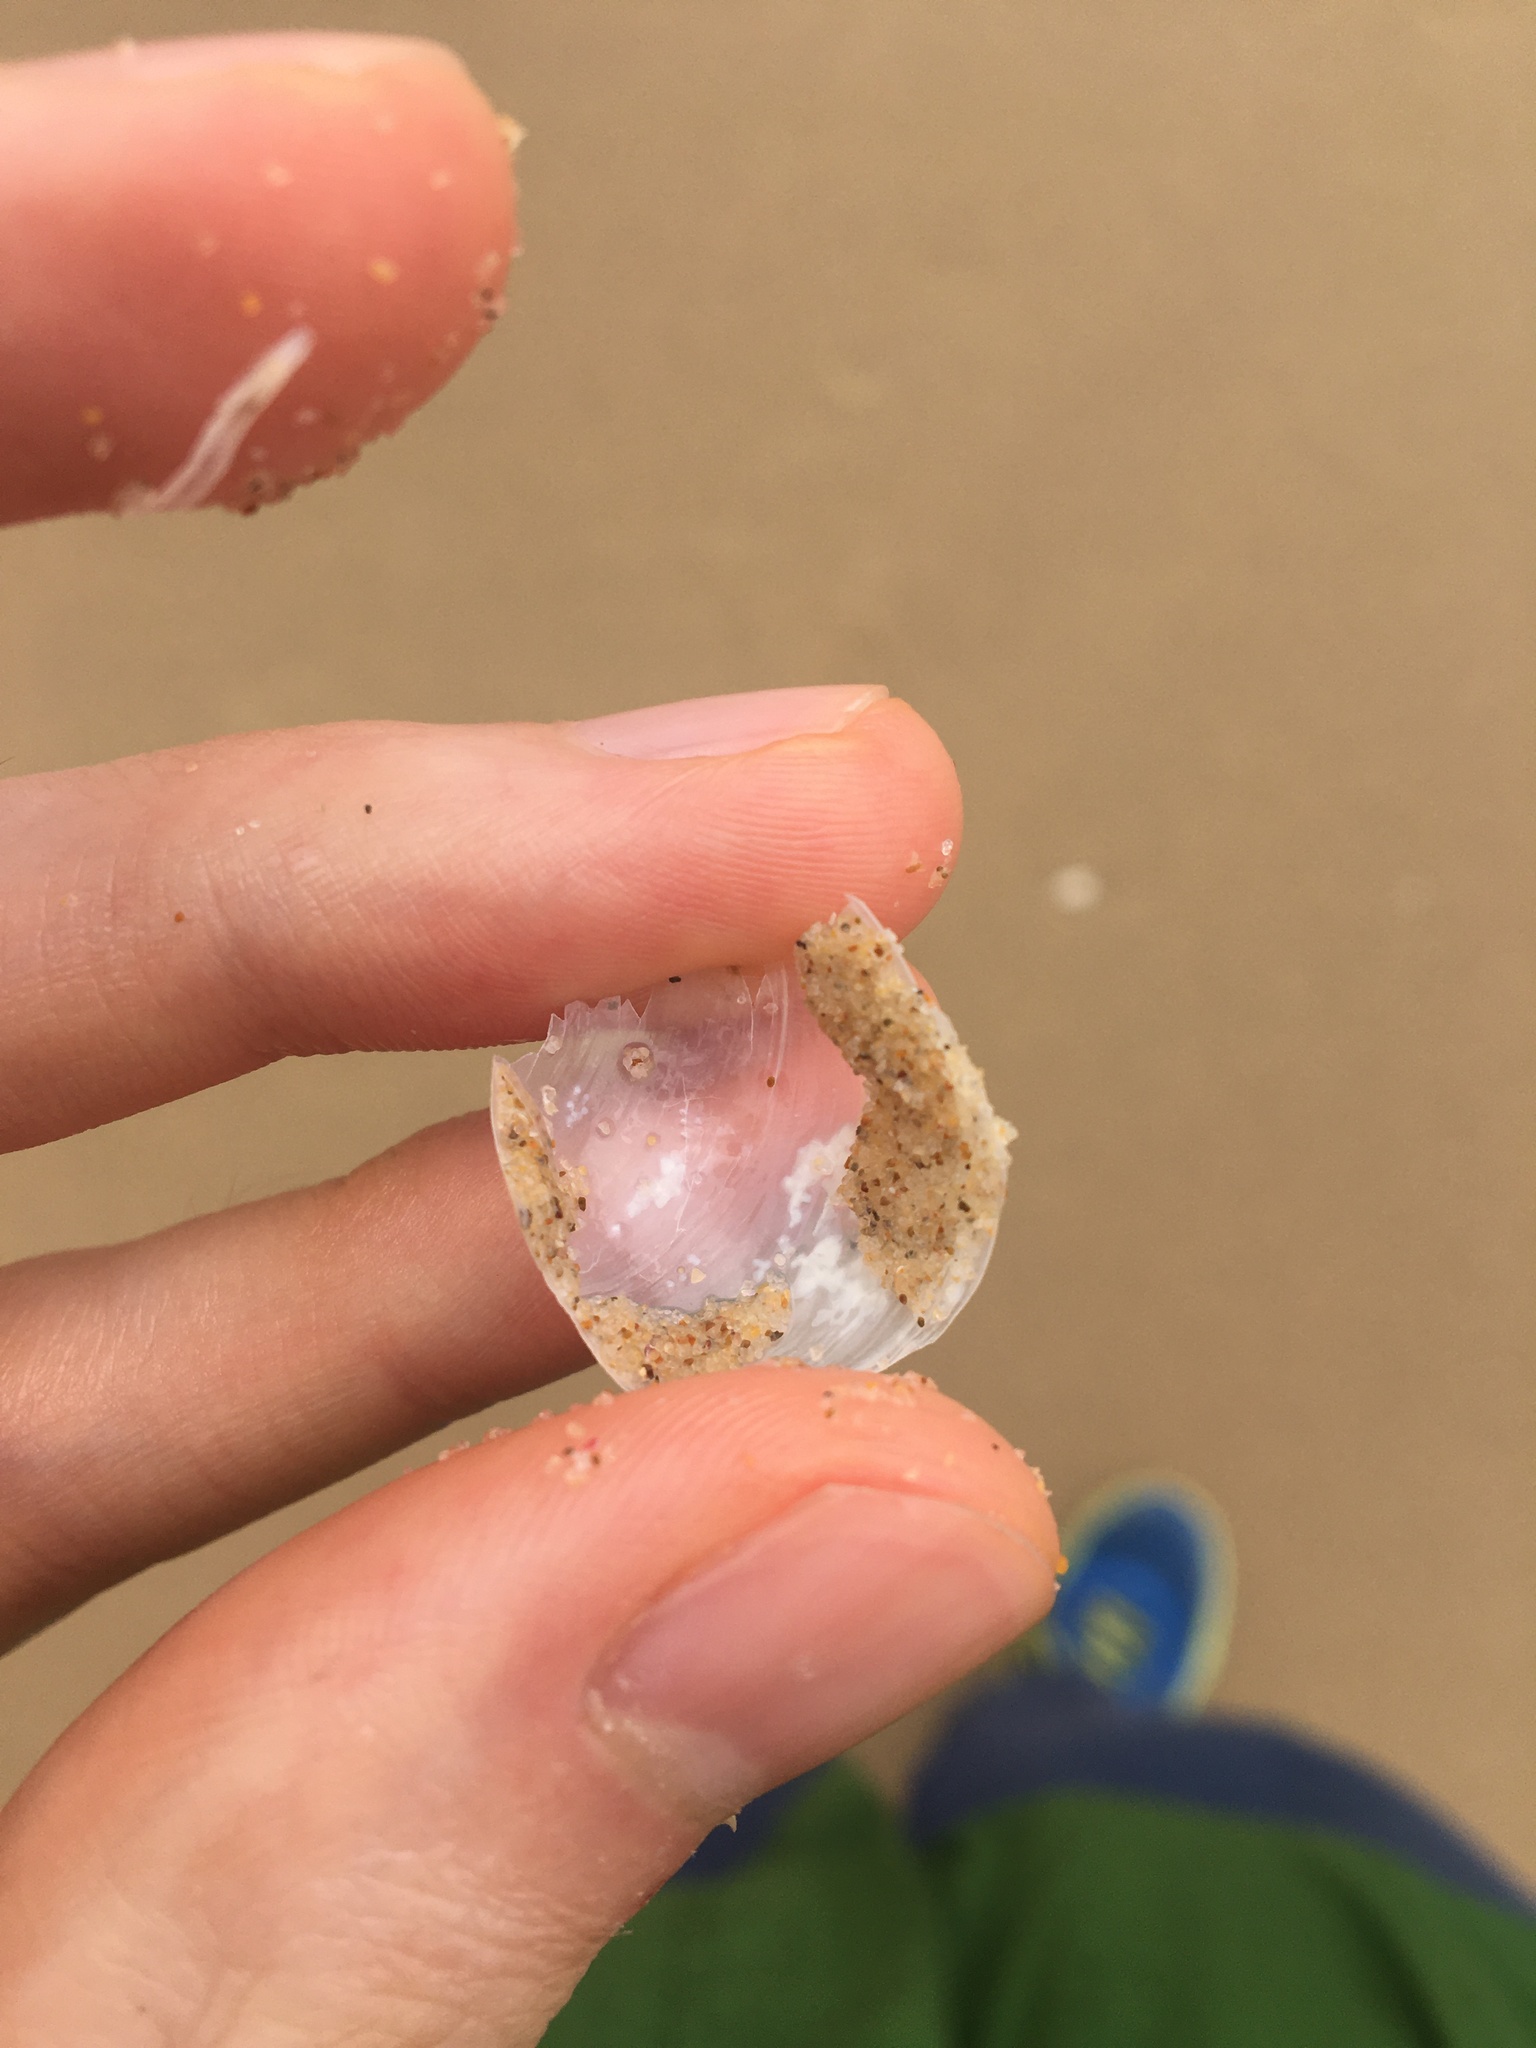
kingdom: Animalia
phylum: Mollusca
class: Gastropoda
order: Cephalaspidea
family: Philinidae
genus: Philine
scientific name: Philine angasi
